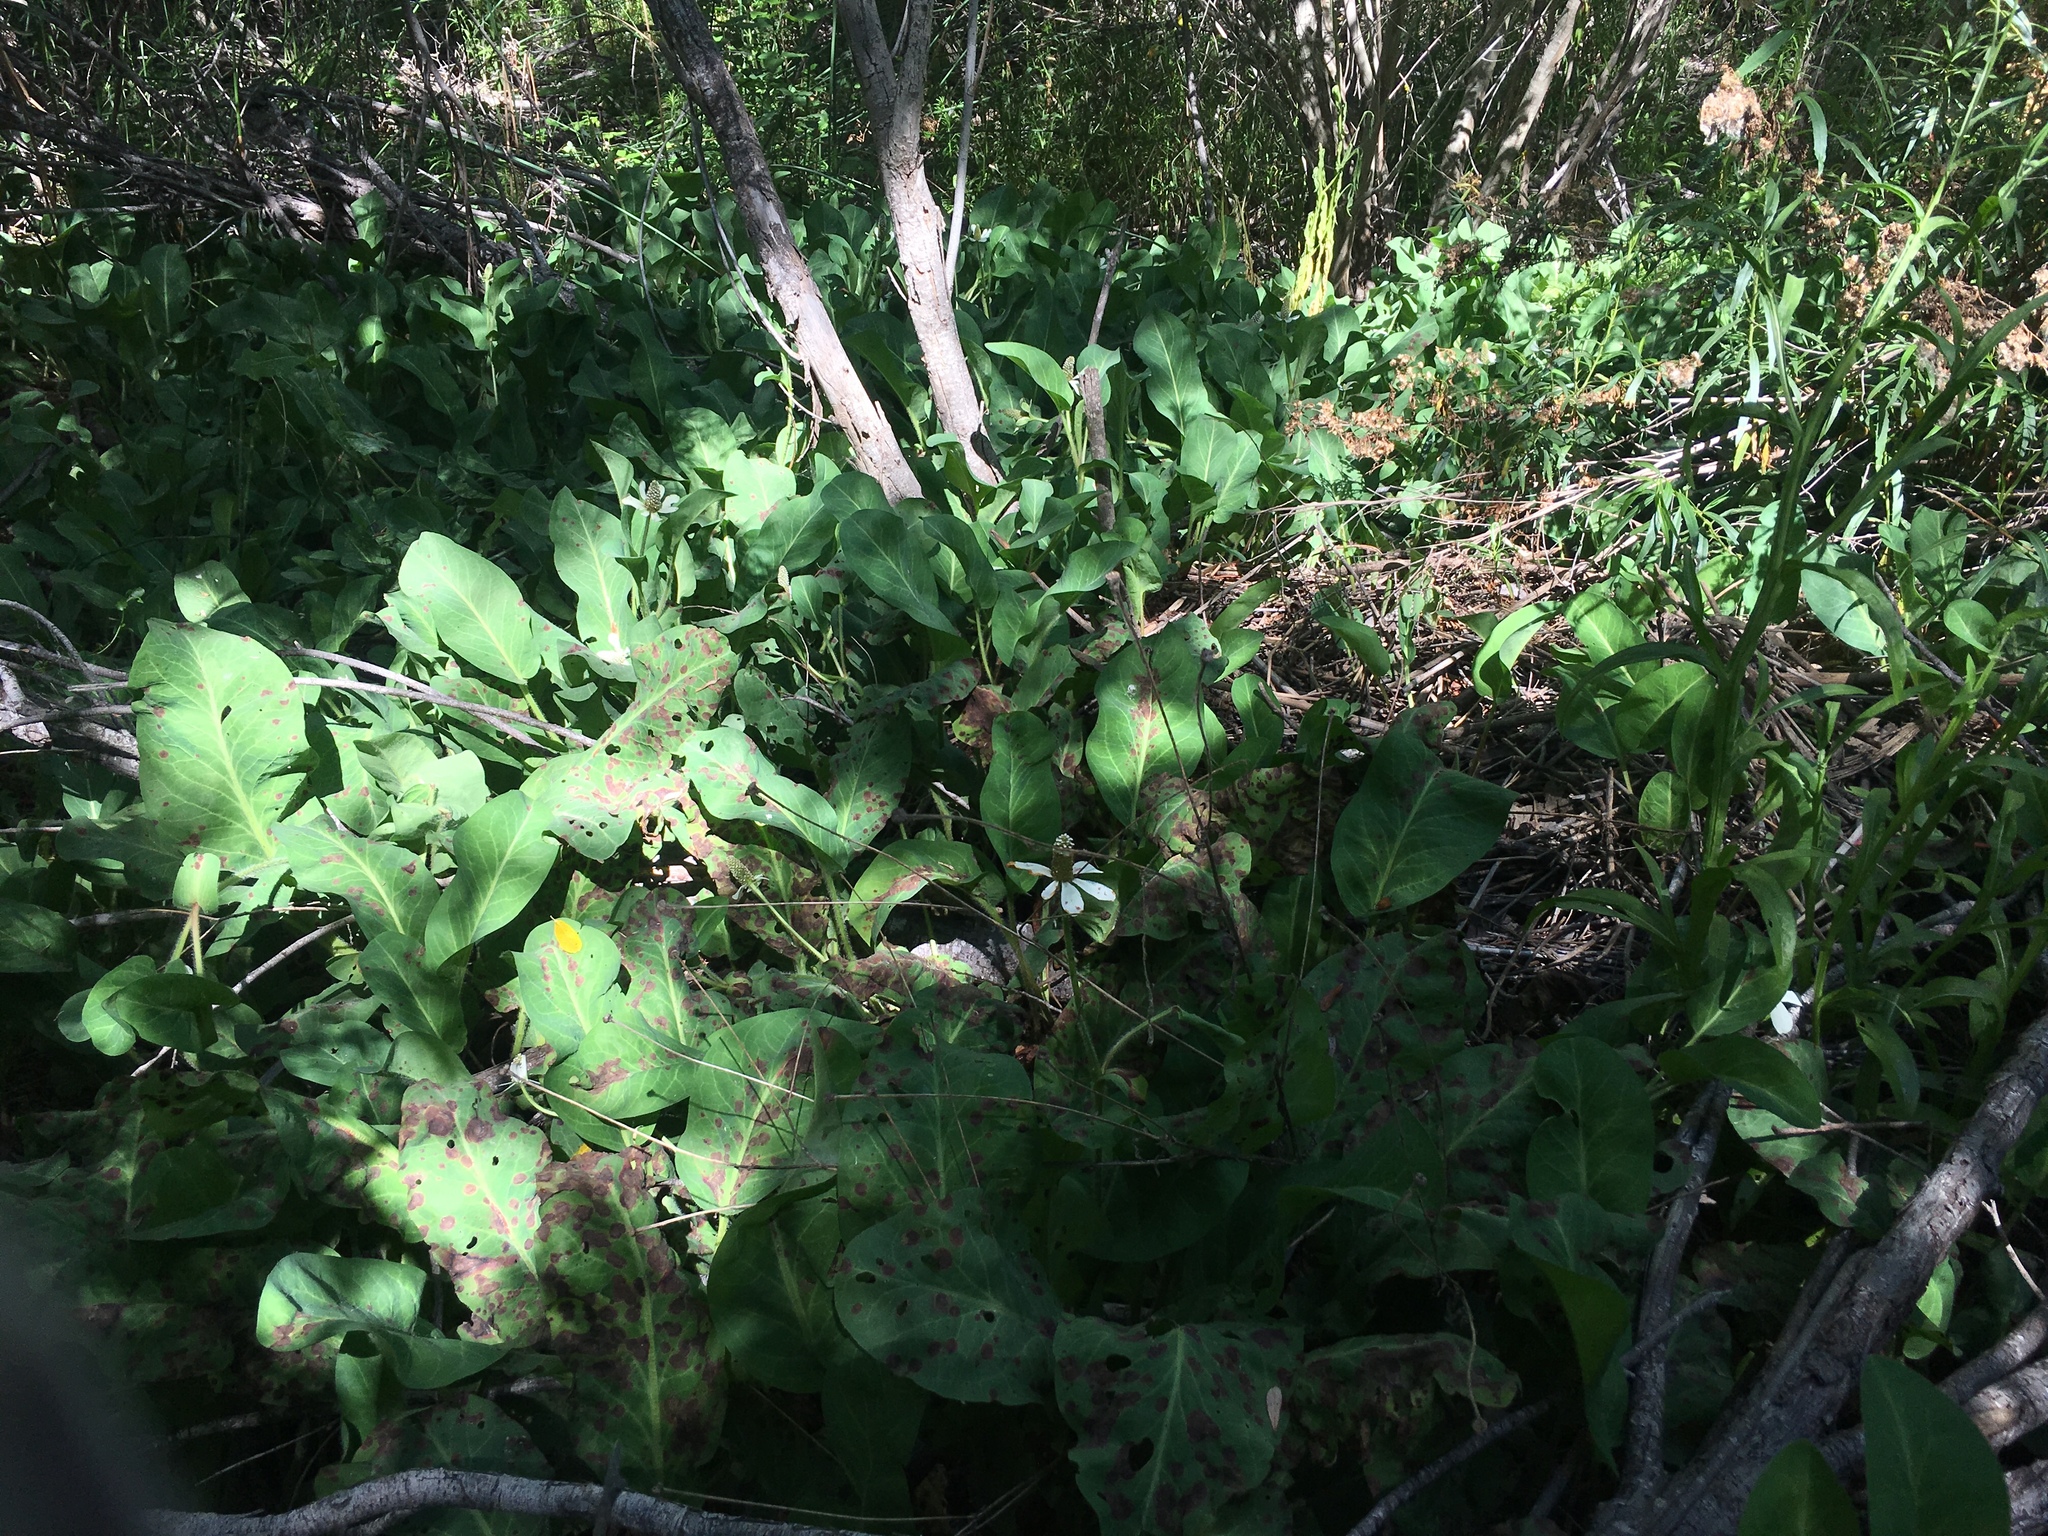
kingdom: Plantae
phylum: Tracheophyta
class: Magnoliopsida
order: Piperales
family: Saururaceae
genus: Anemopsis
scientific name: Anemopsis californica
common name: Apache-beads
